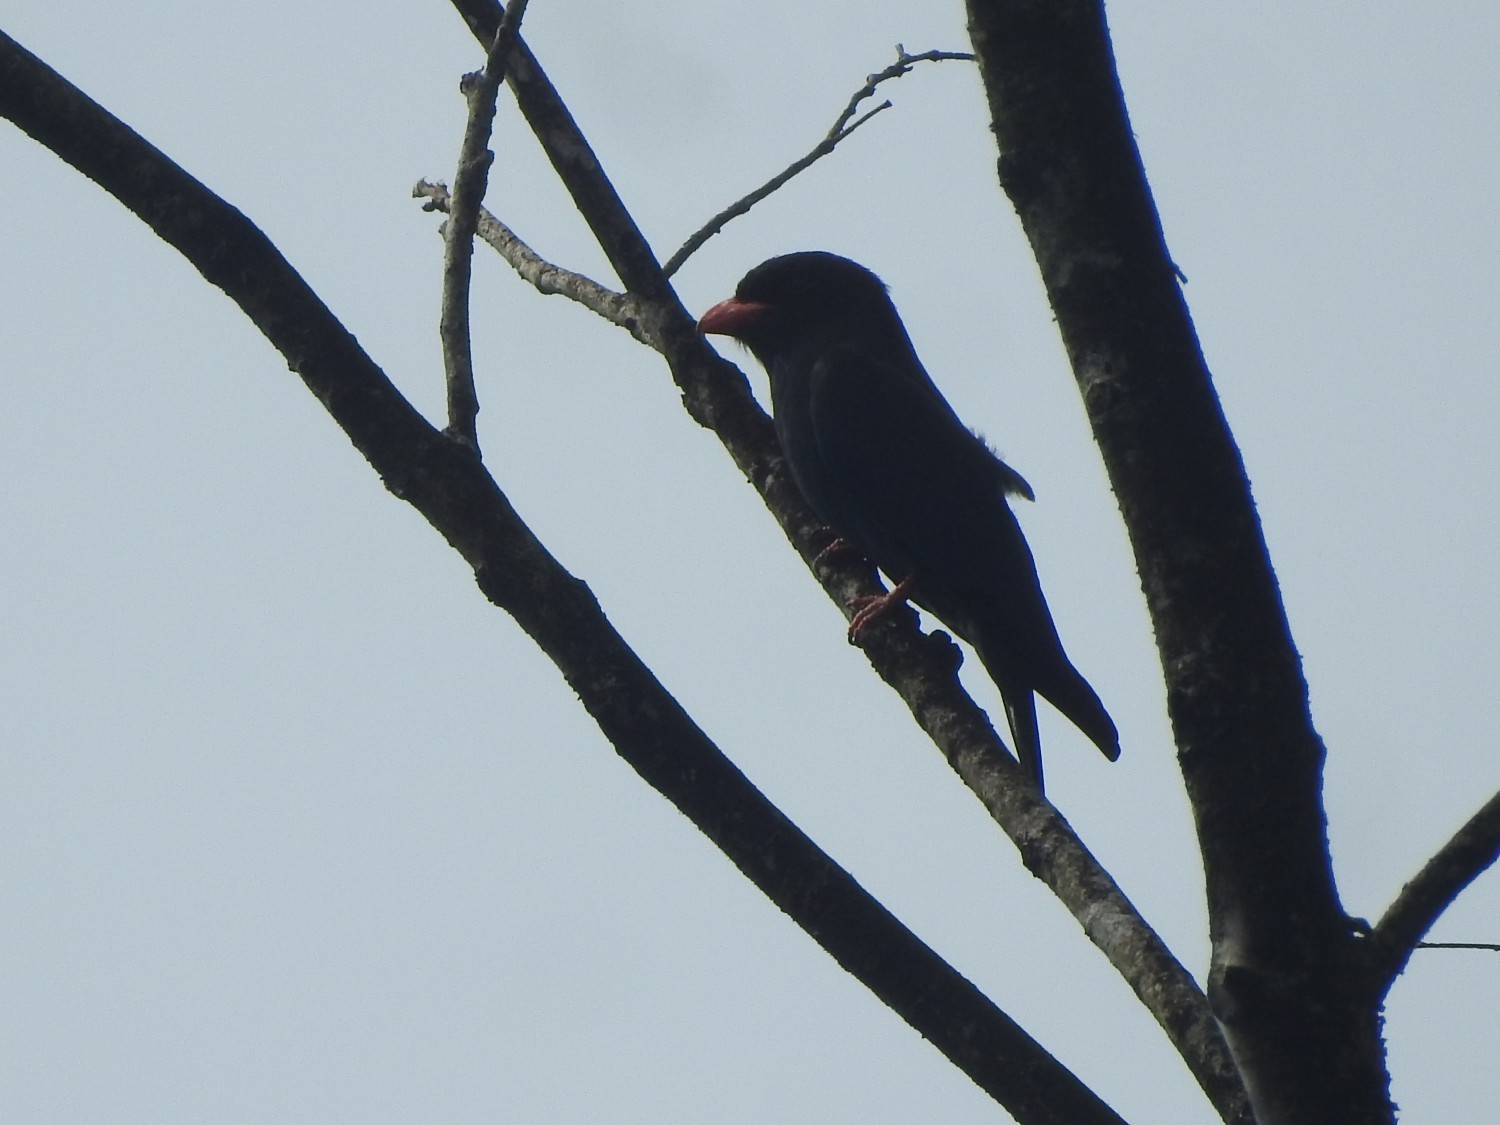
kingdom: Animalia
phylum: Chordata
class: Aves
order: Coraciiformes
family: Coraciidae
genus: Eurystomus
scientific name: Eurystomus orientalis
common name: Oriental dollarbird
